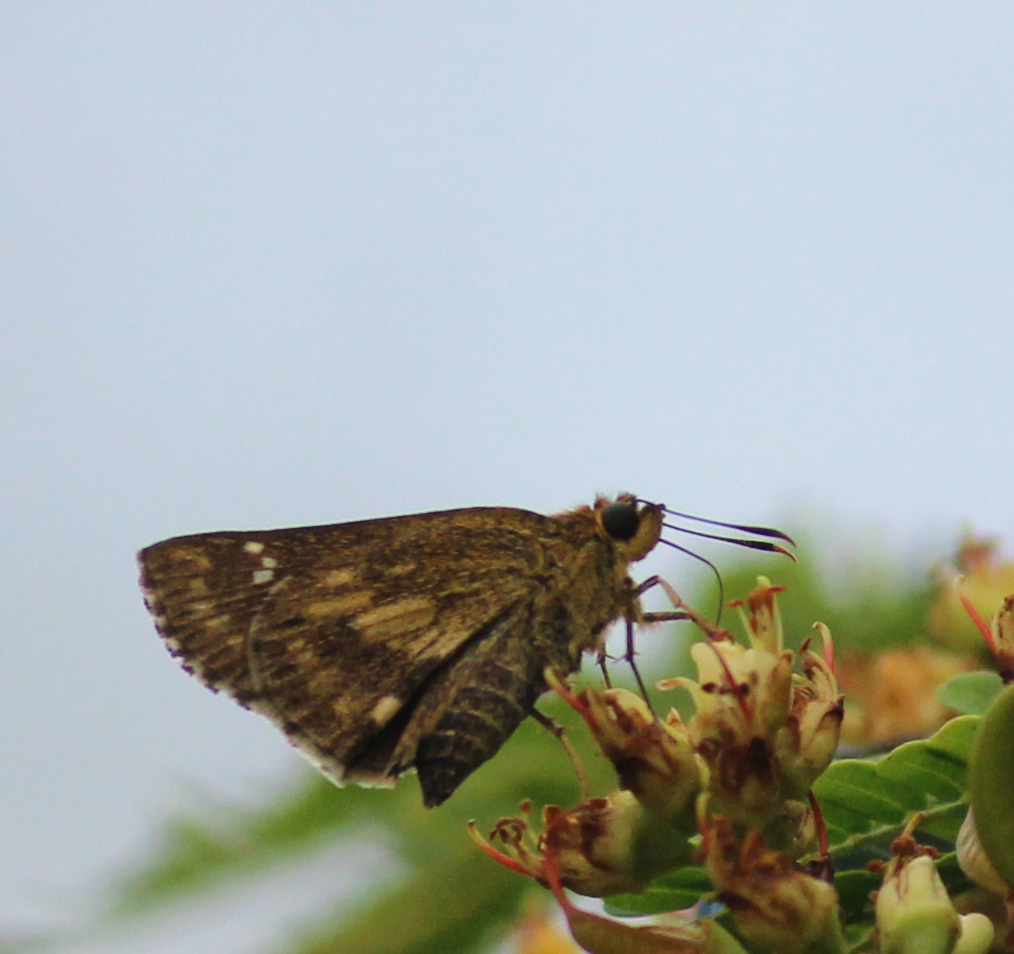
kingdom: Animalia
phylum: Arthropoda
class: Insecta
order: Lepidoptera
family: Hesperiidae
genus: Halpe
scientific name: Halpe homolea
